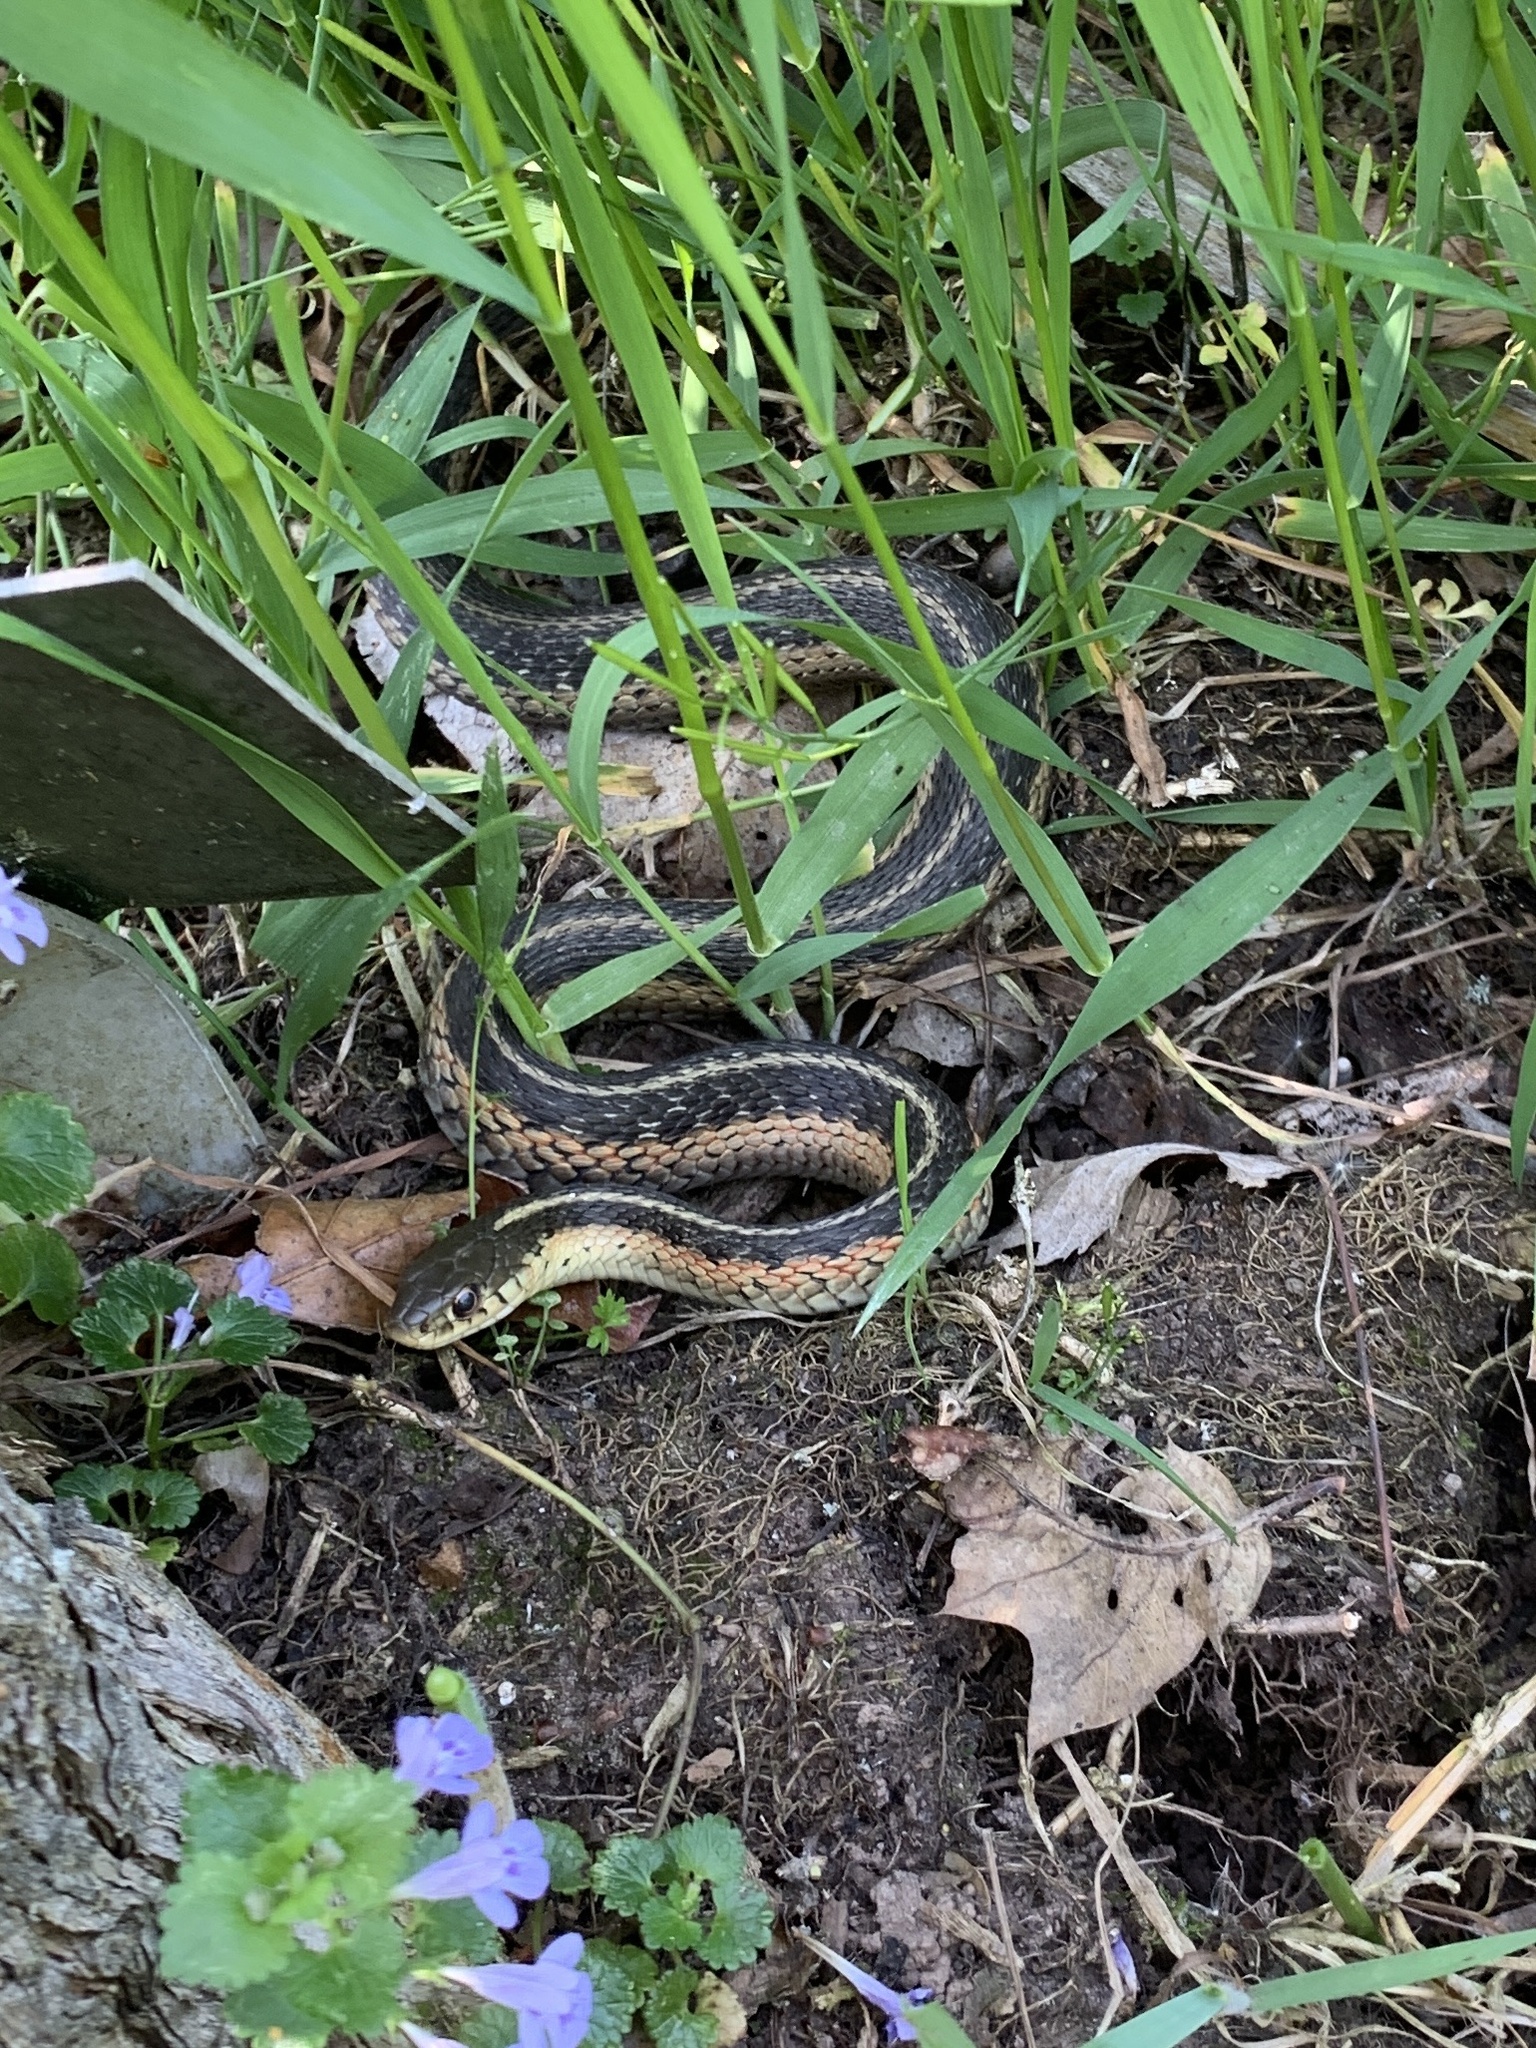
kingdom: Animalia
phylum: Chordata
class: Squamata
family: Colubridae
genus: Thamnophis
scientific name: Thamnophis sirtalis
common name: Common garter snake
